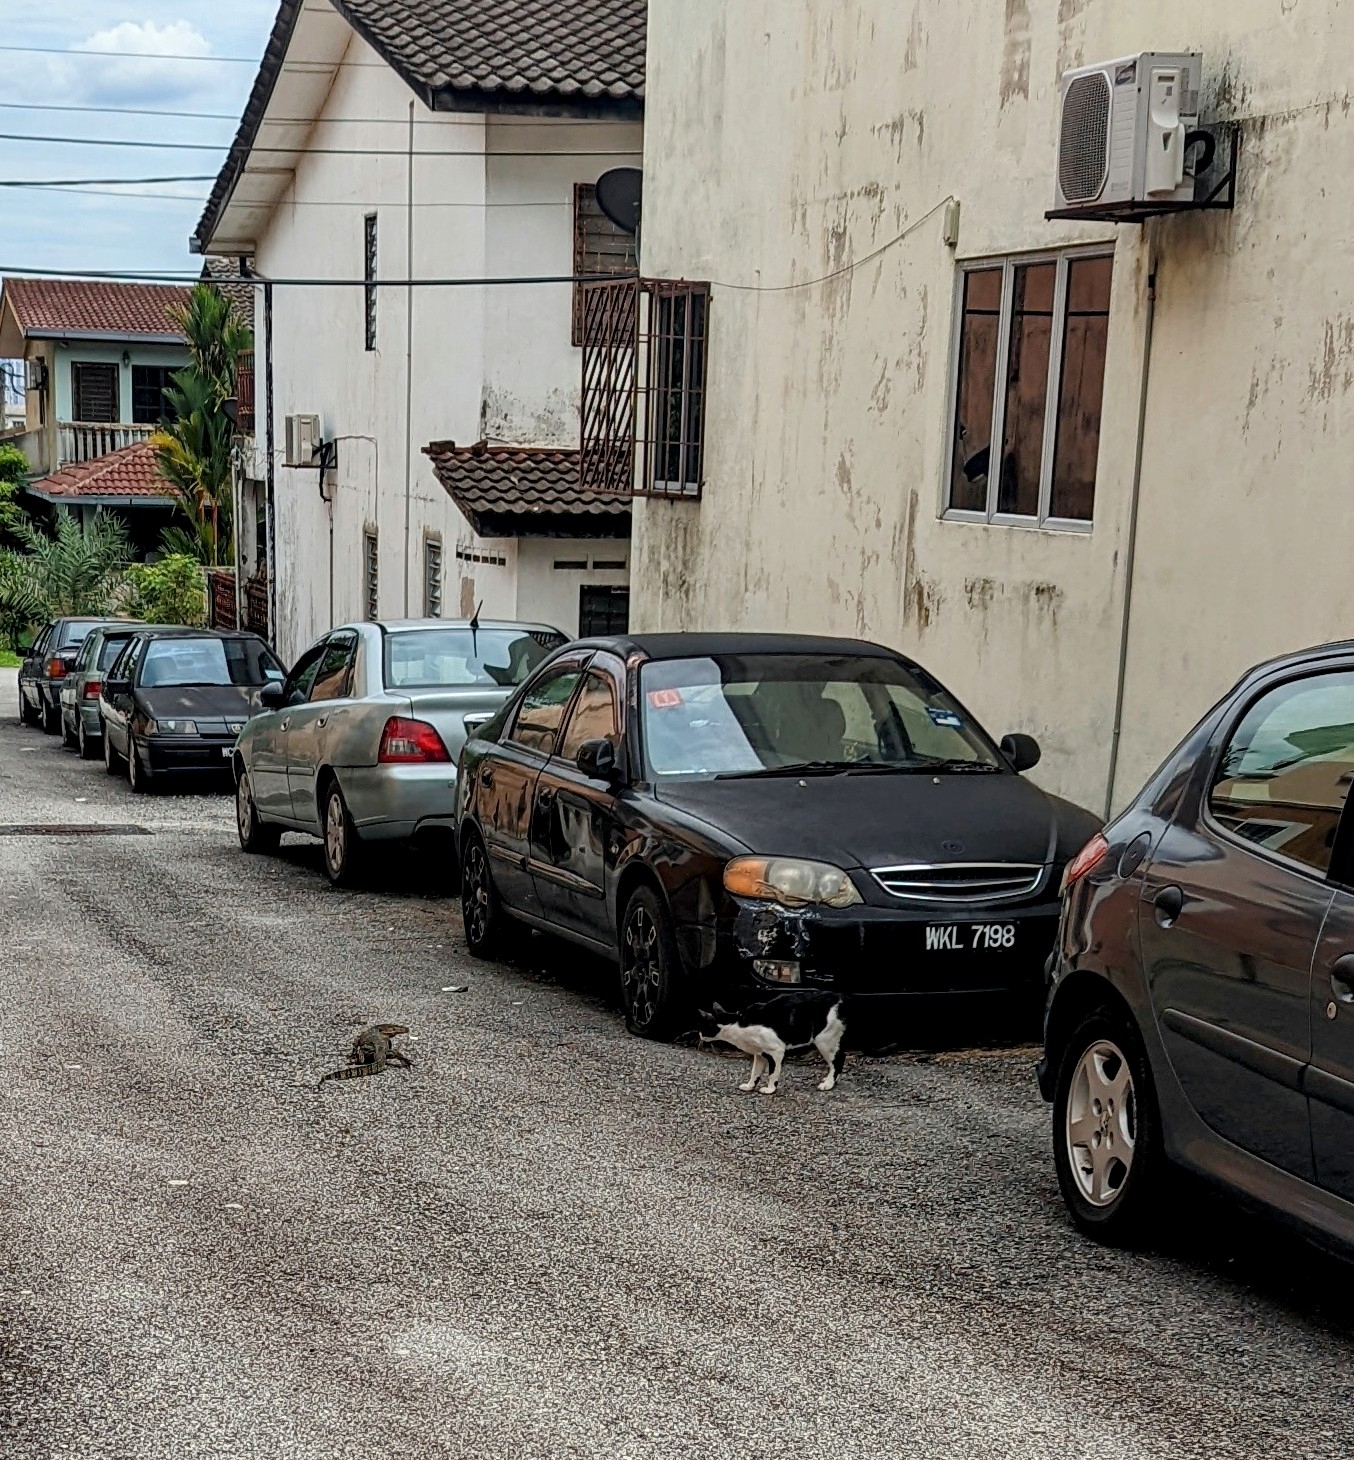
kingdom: Animalia
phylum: Chordata
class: Squamata
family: Varanidae
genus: Varanus
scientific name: Varanus salvator
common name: Common water monitor
